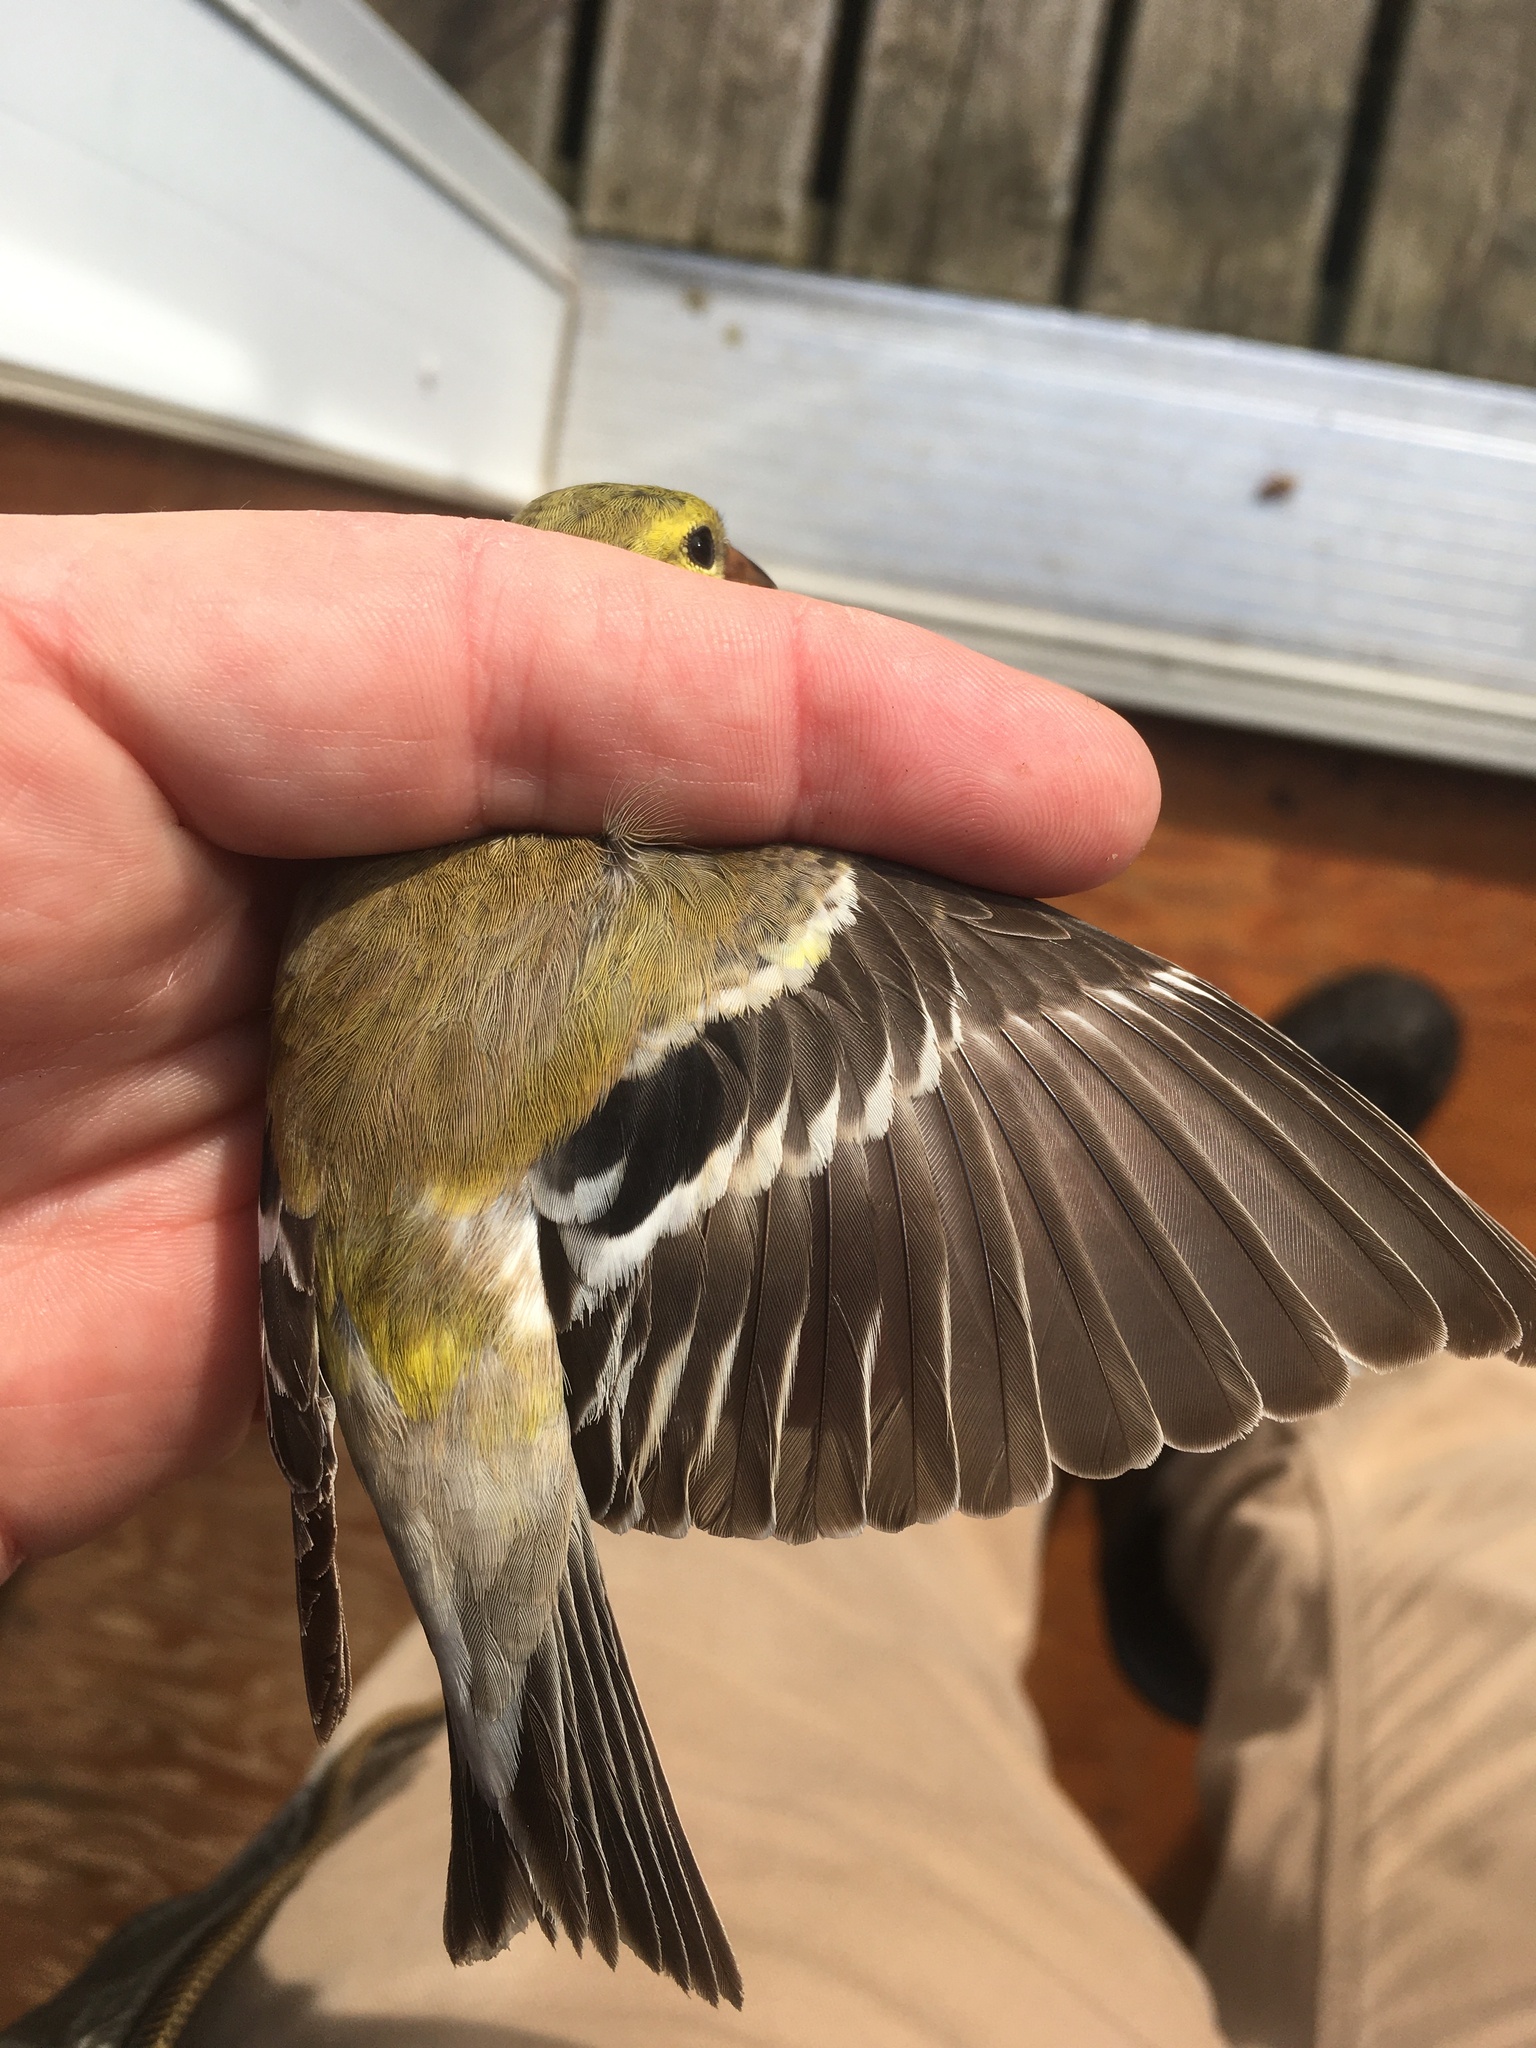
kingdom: Animalia
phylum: Chordata
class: Aves
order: Passeriformes
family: Fringillidae
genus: Spinus
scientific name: Spinus tristis
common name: American goldfinch
